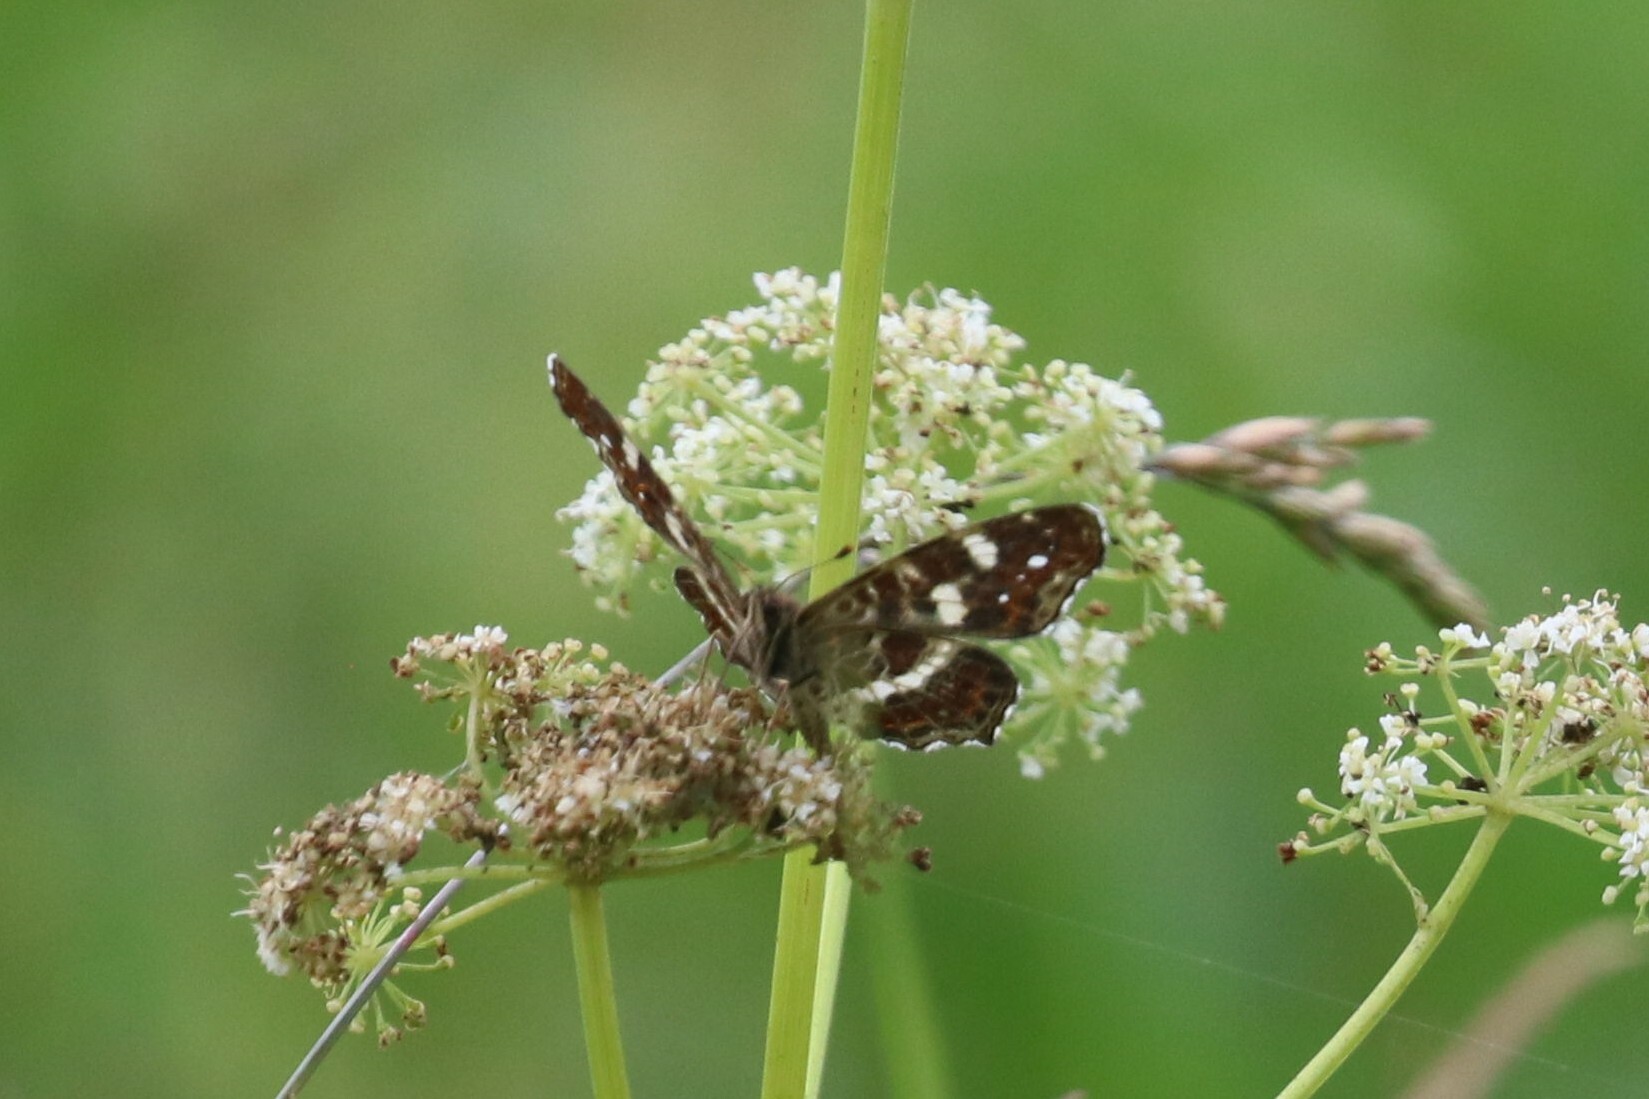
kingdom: Animalia
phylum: Arthropoda
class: Insecta
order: Lepidoptera
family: Nymphalidae
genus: Araschnia
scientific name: Araschnia levana
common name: Map butterfly
